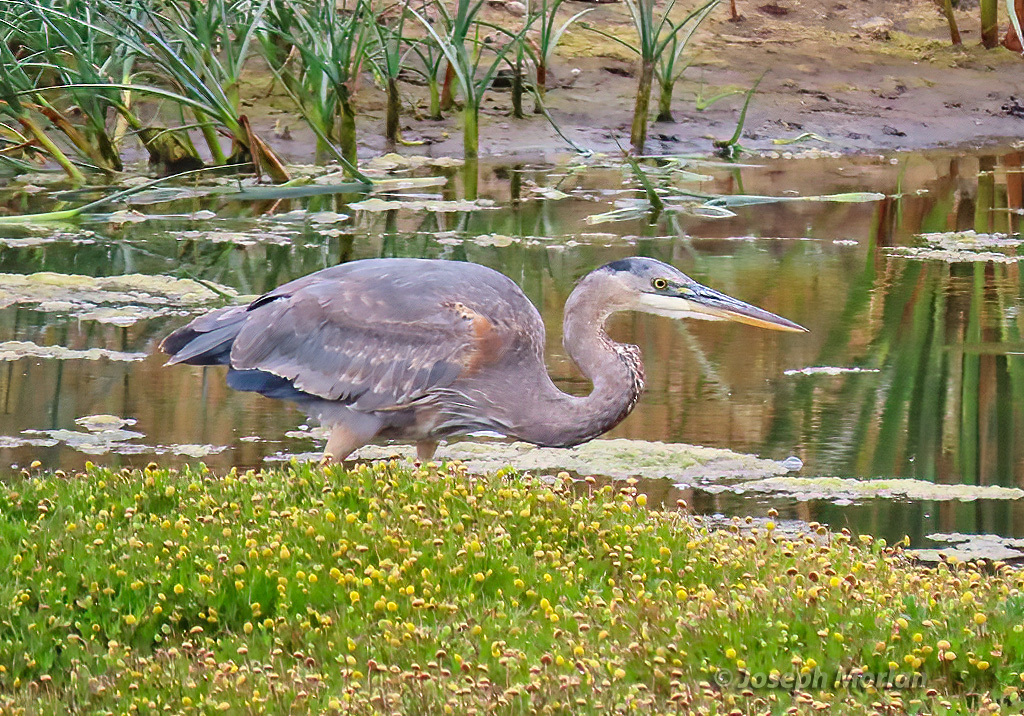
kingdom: Animalia
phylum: Chordata
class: Aves
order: Pelecaniformes
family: Ardeidae
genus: Ardea
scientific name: Ardea herodias
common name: Great blue heron
